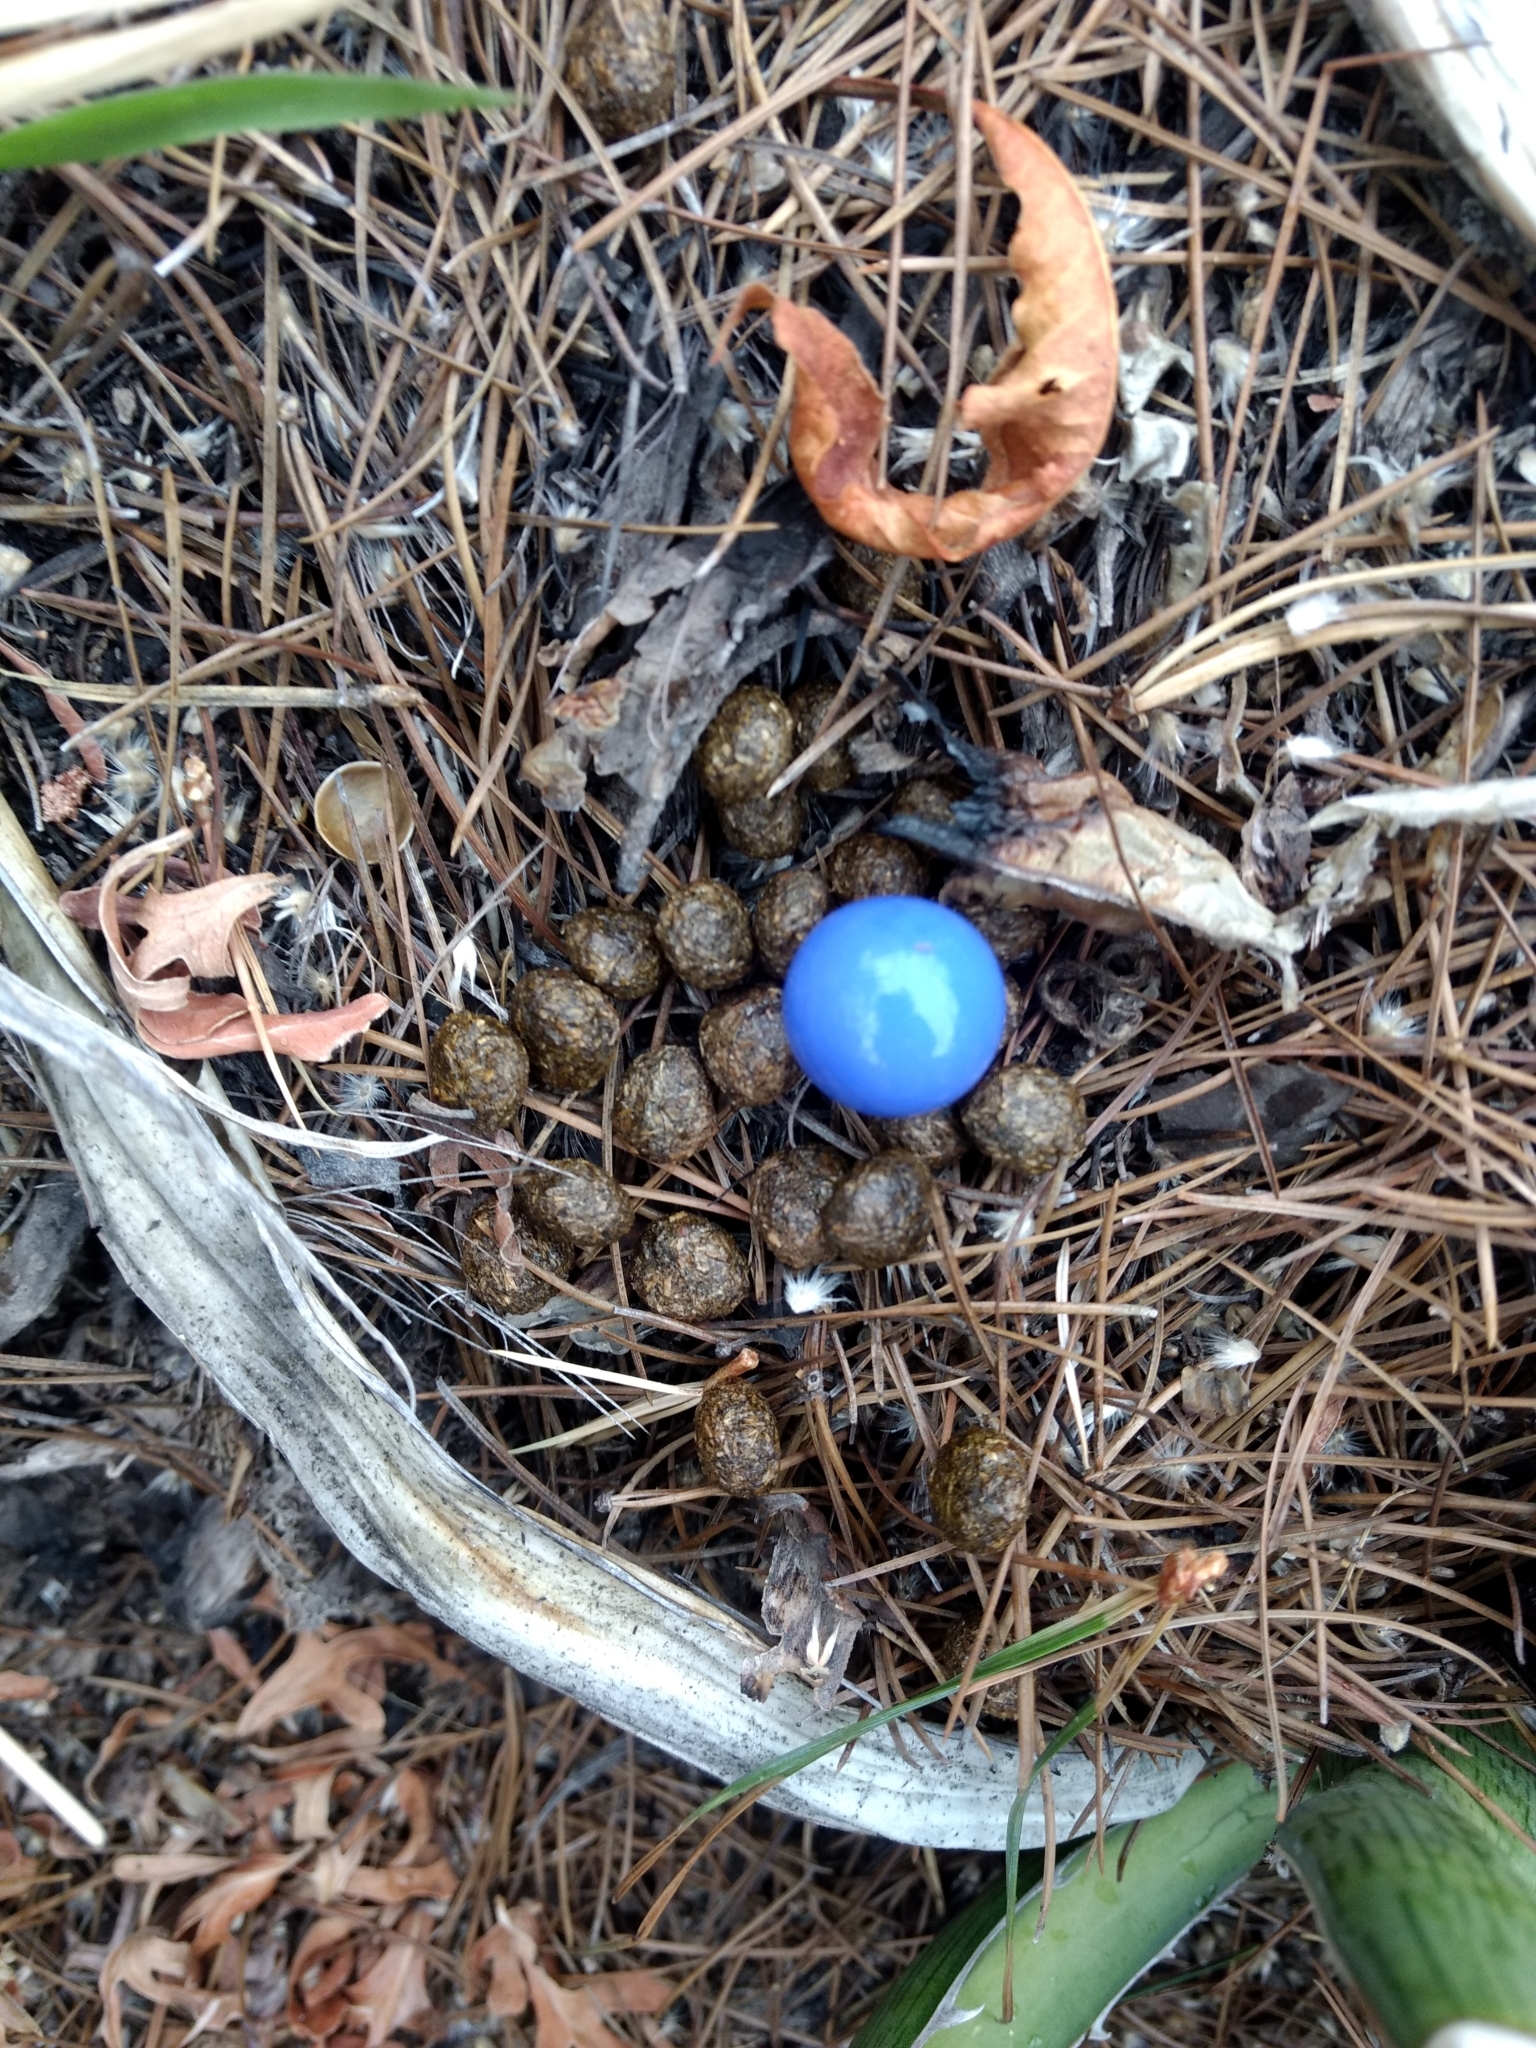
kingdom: Animalia
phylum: Chordata
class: Mammalia
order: Lagomorpha
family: Leporidae
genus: Sylvilagus
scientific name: Sylvilagus floridanus
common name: Eastern cottontail
